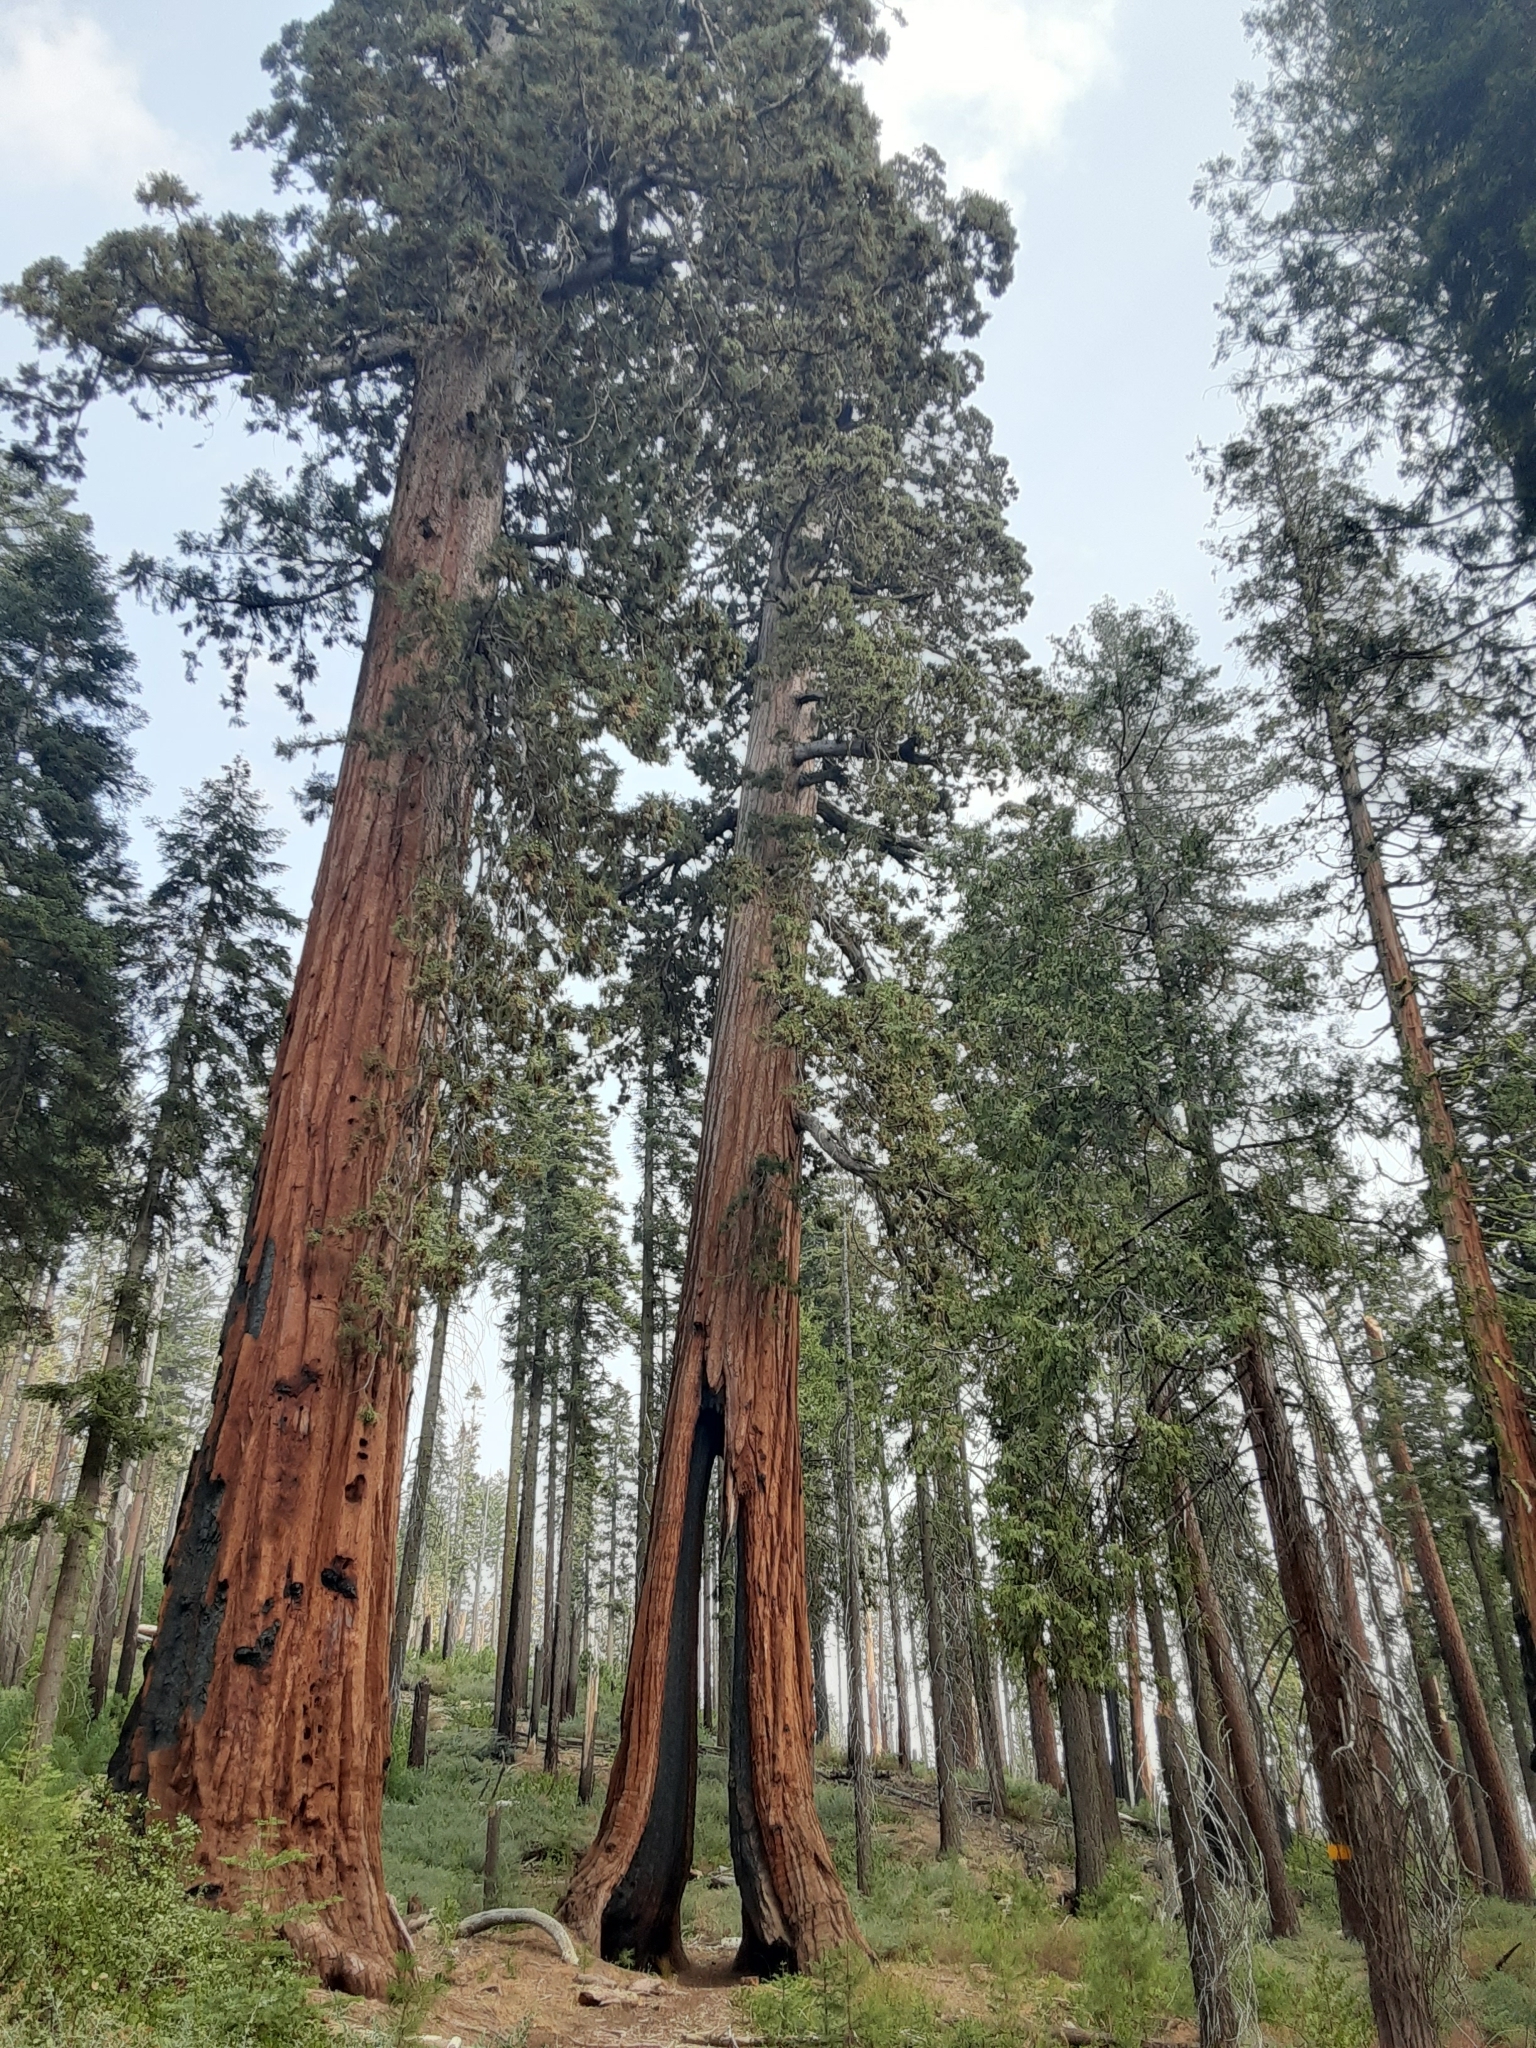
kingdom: Plantae
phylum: Tracheophyta
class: Pinopsida
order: Pinales
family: Cupressaceae
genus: Sequoiadendron
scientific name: Sequoiadendron giganteum
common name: Wellingtonia
